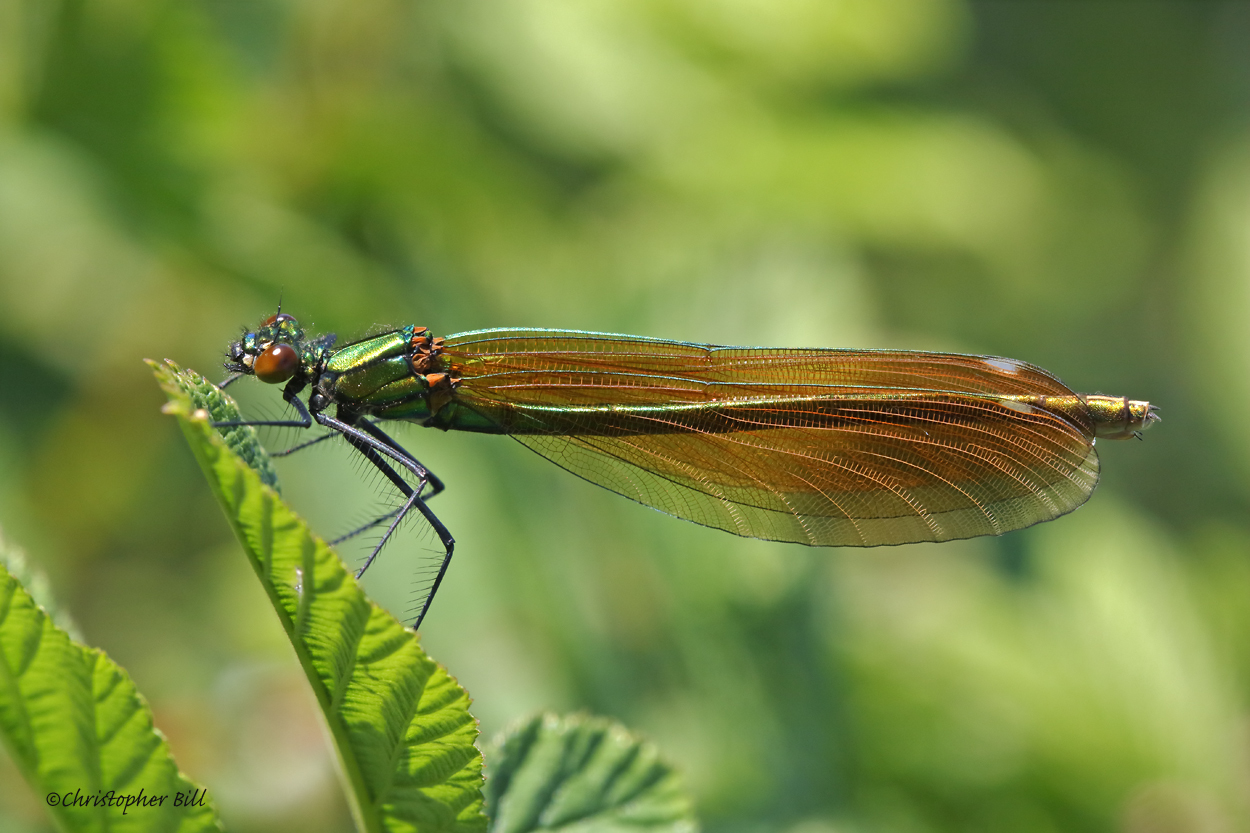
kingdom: Animalia
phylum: Arthropoda
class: Insecta
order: Odonata
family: Calopterygidae
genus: Calopteryx
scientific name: Calopteryx virgo
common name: Beautiful demoiselle
